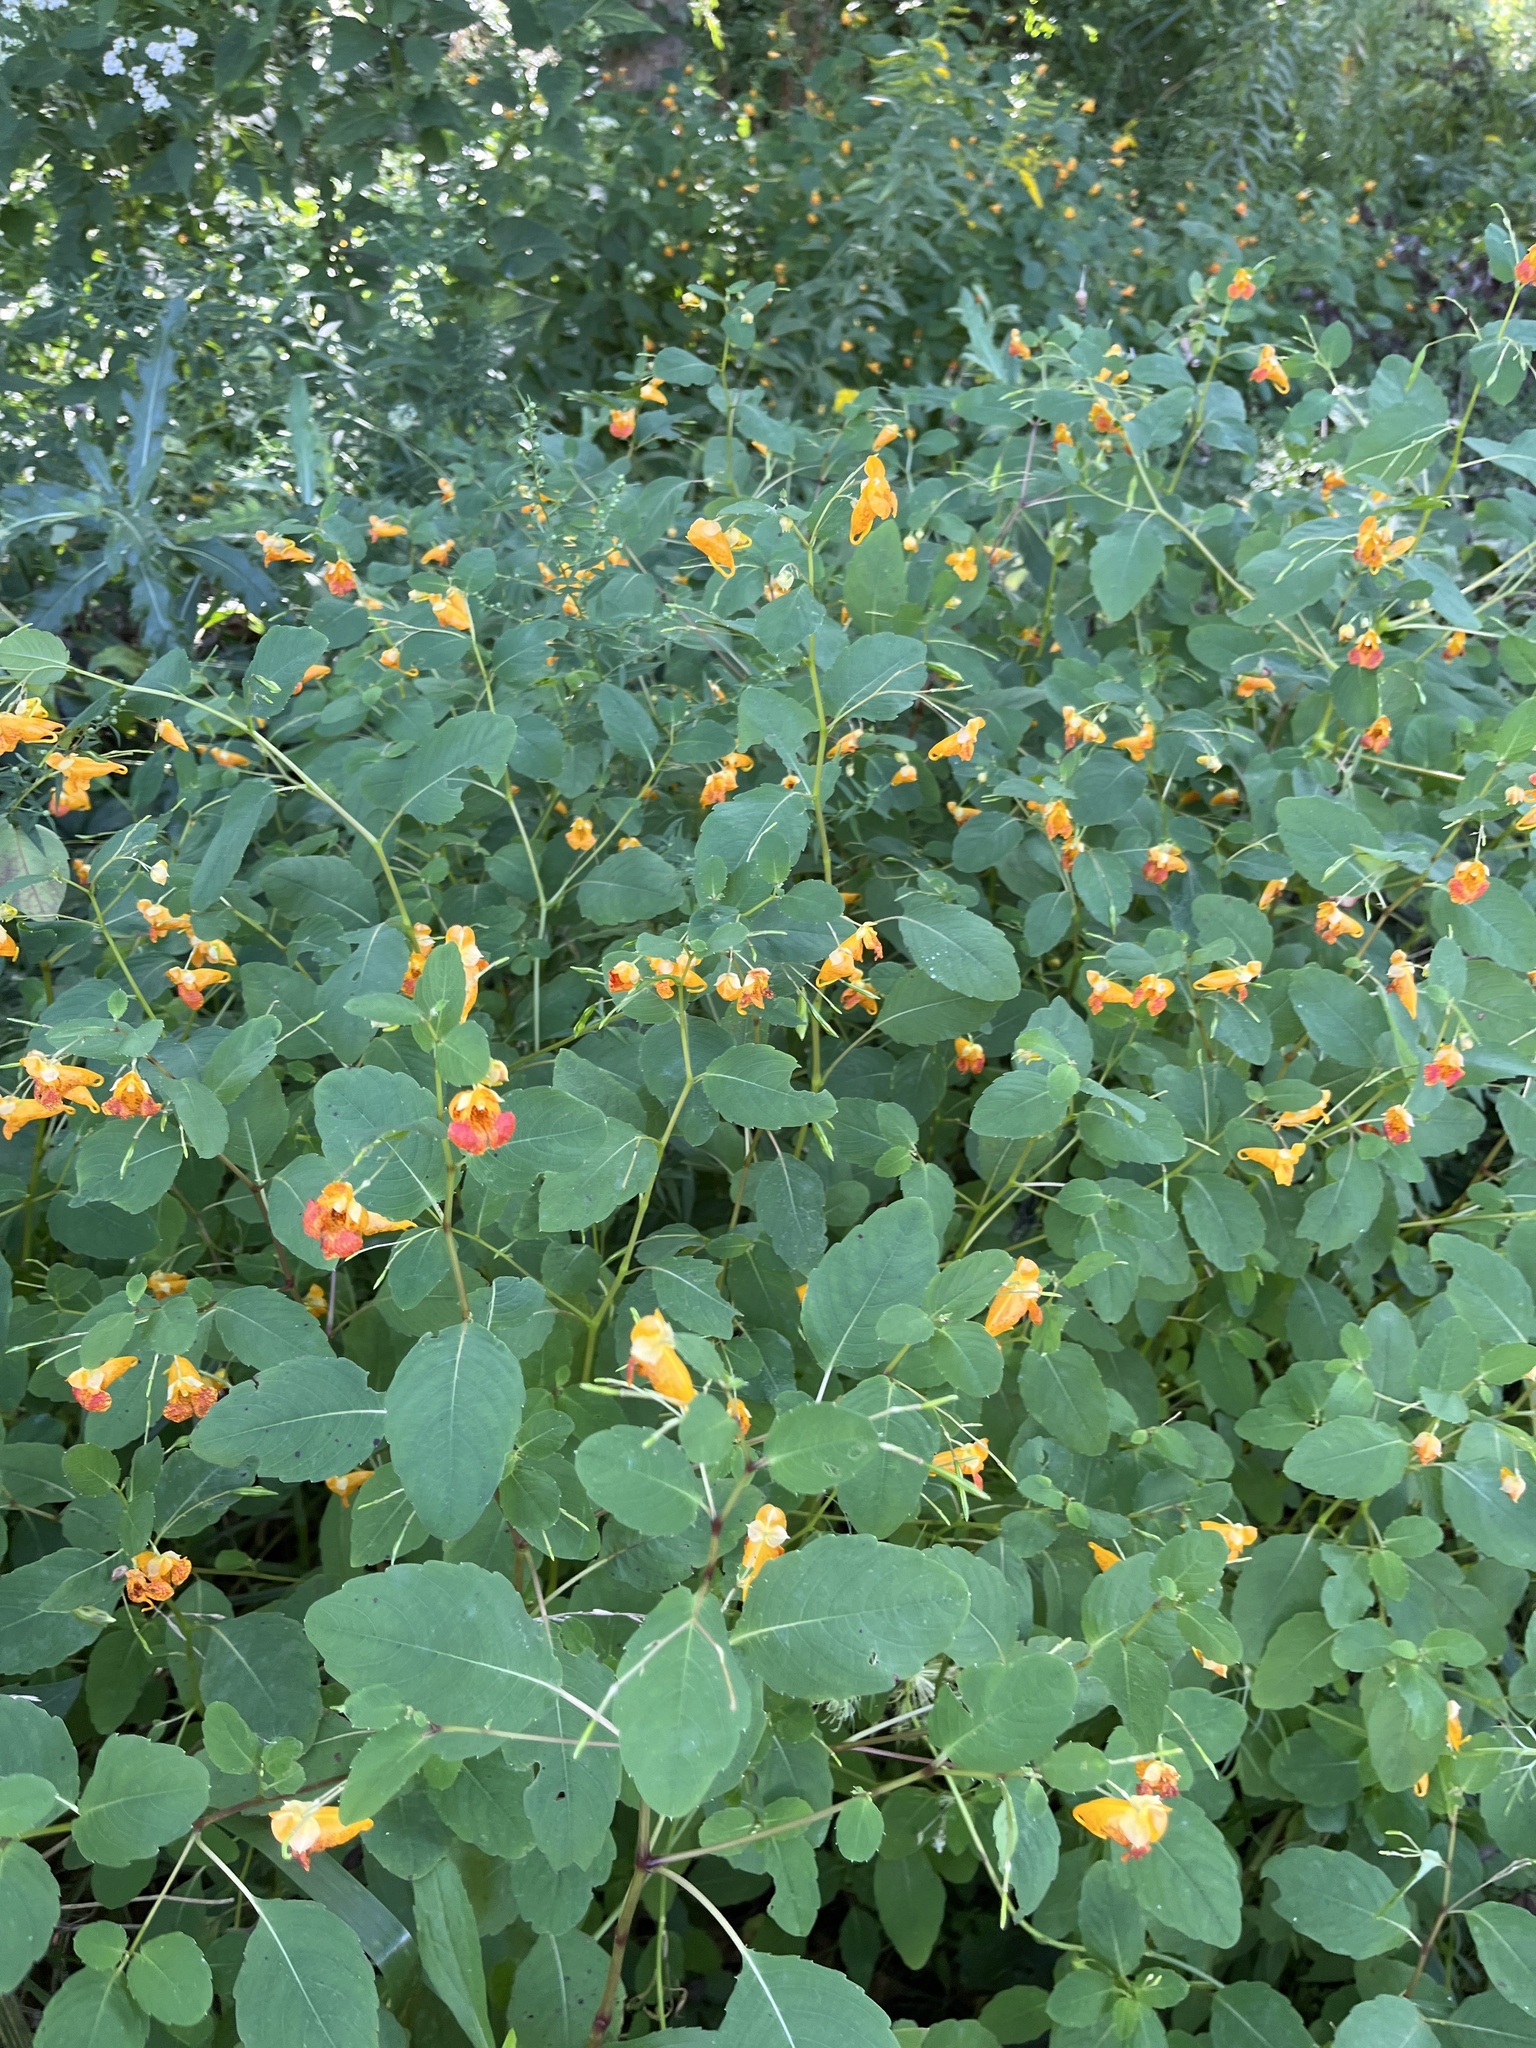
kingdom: Plantae
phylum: Tracheophyta
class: Magnoliopsida
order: Ericales
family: Balsaminaceae
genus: Impatiens
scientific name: Impatiens capensis
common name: Orange balsam
